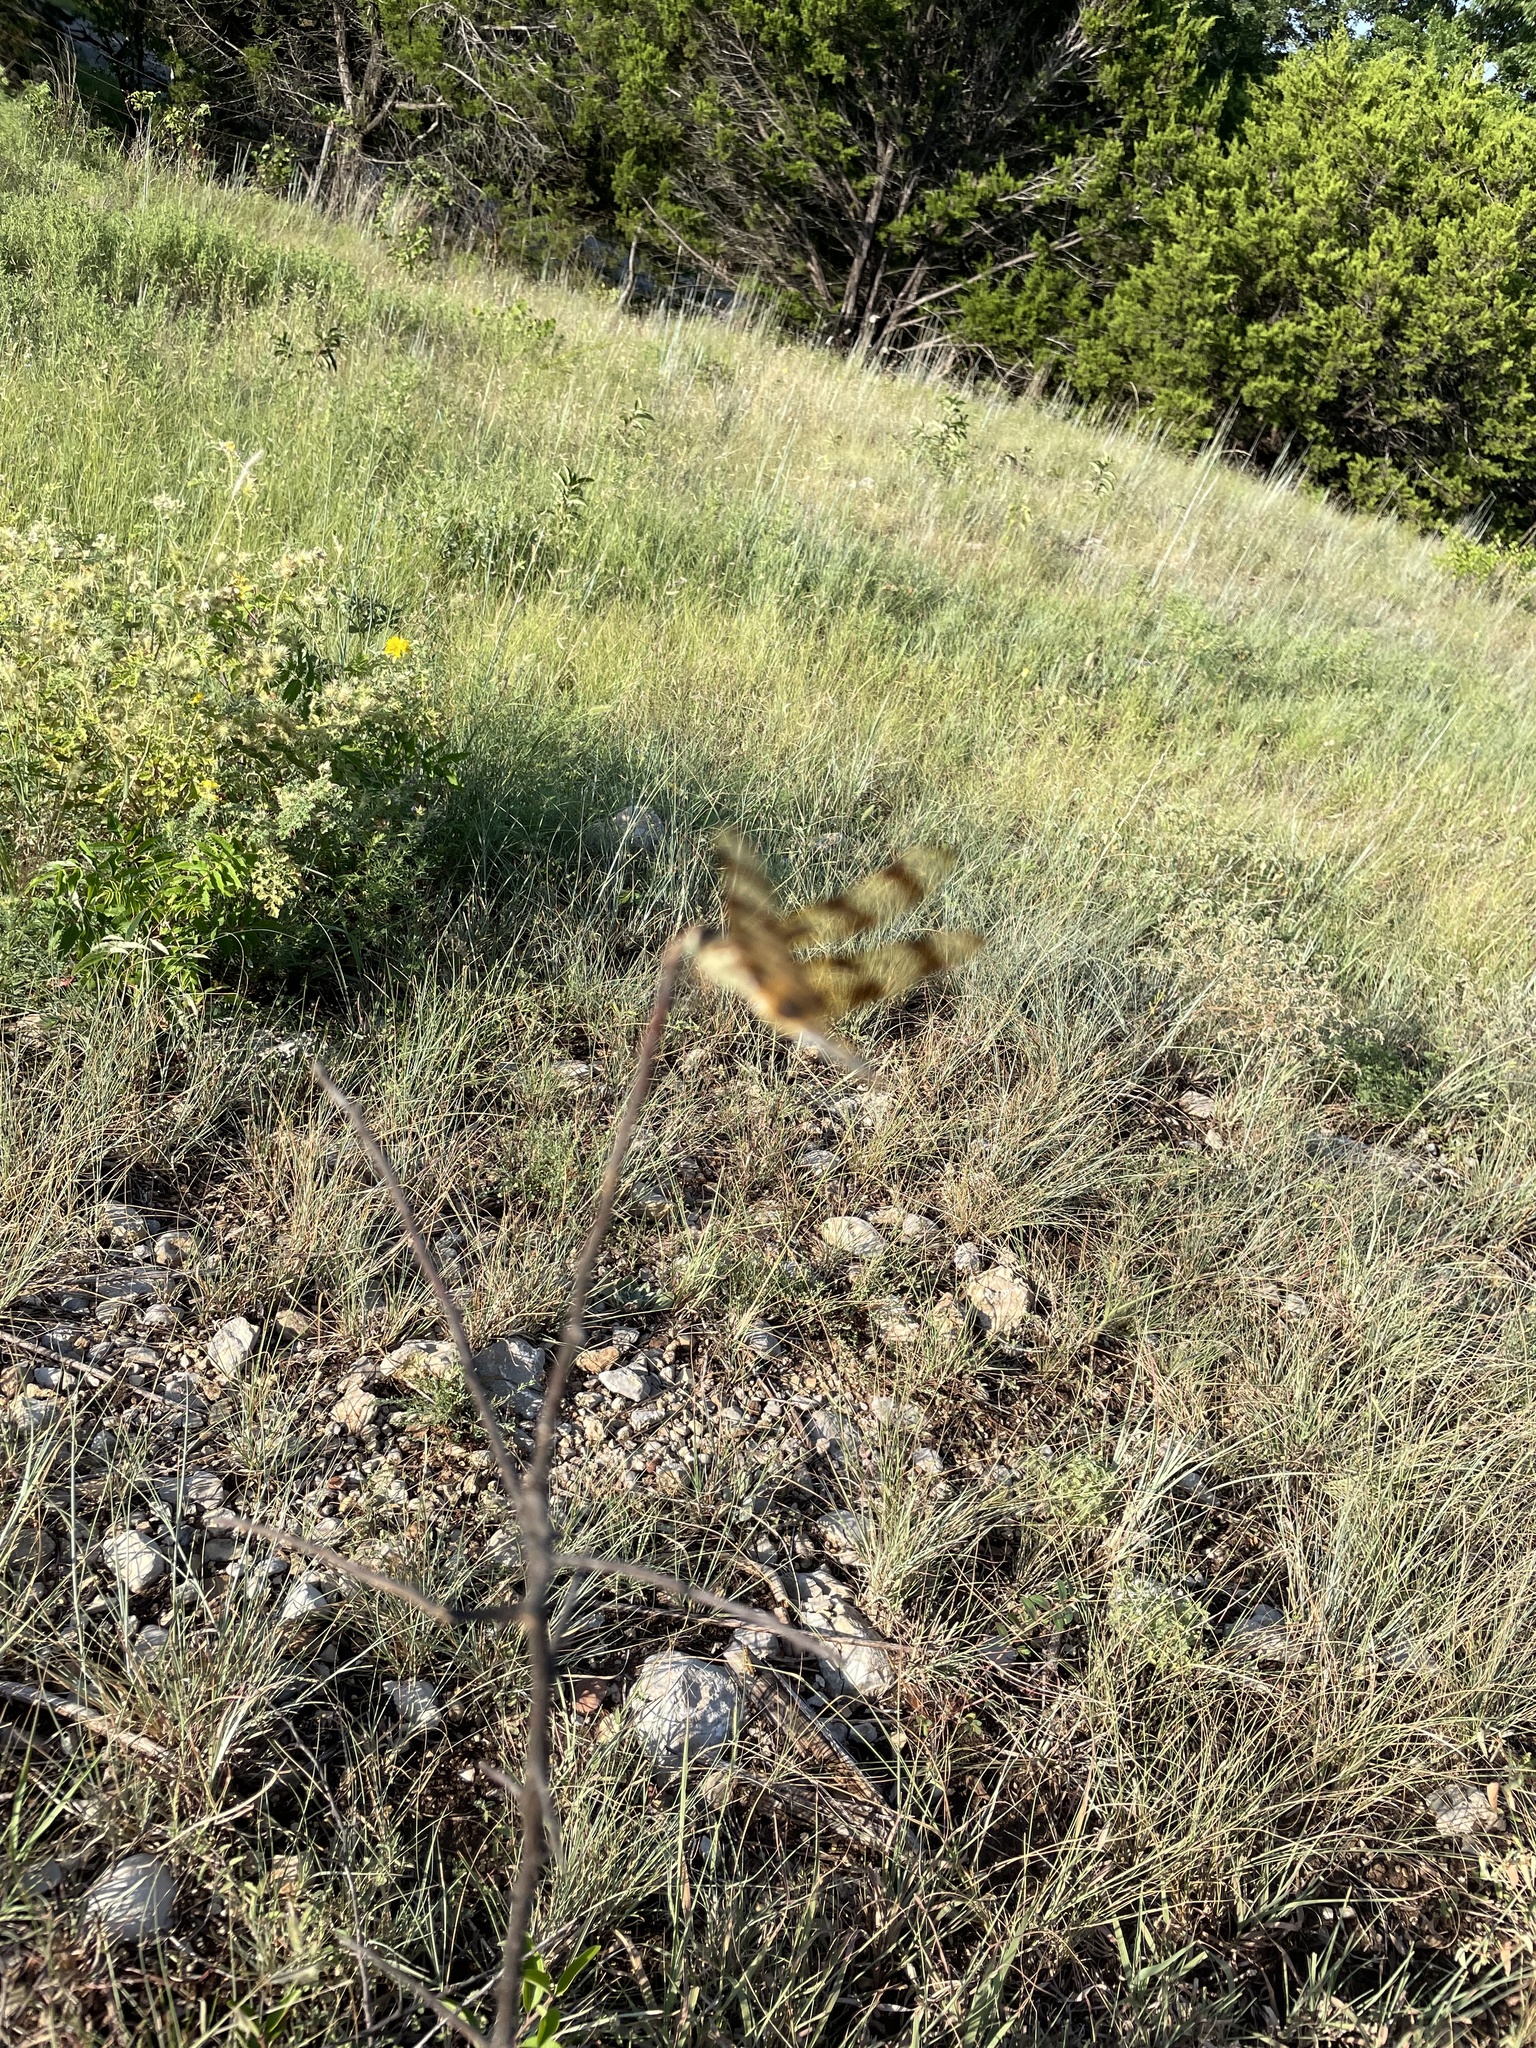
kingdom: Animalia
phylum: Arthropoda
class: Insecta
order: Odonata
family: Libellulidae
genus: Celithemis
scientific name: Celithemis eponina
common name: Halloween pennant
